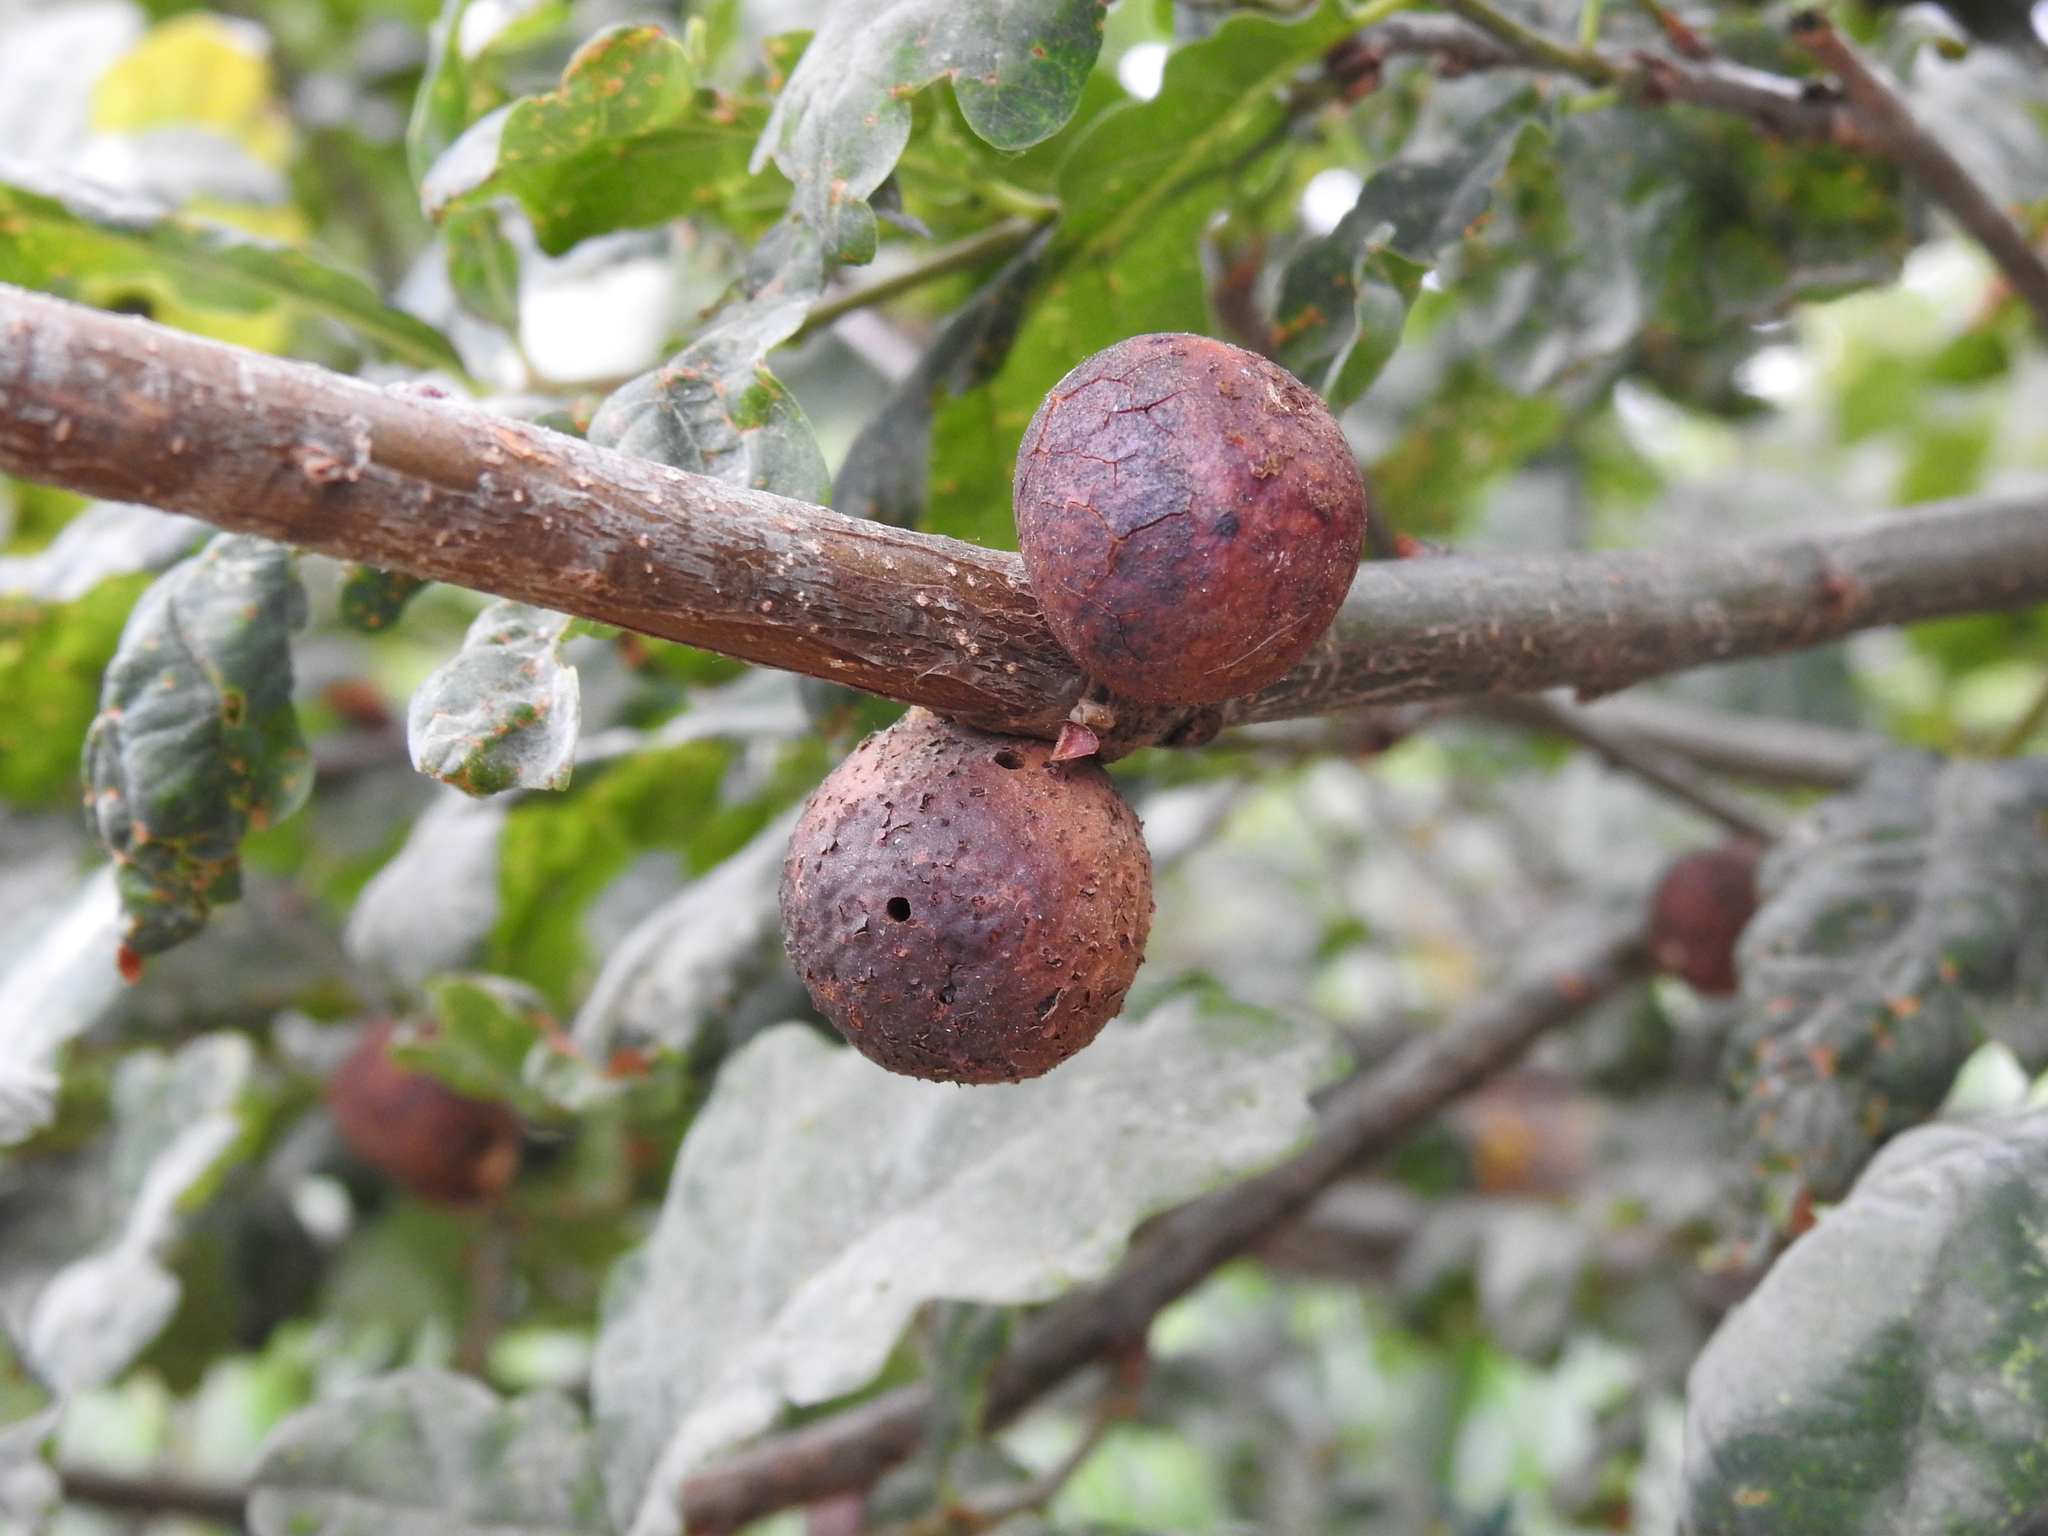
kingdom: Animalia
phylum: Arthropoda
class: Insecta
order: Hymenoptera
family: Cynipidae
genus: Andricus
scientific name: Andricus kollari
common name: Marble gall
